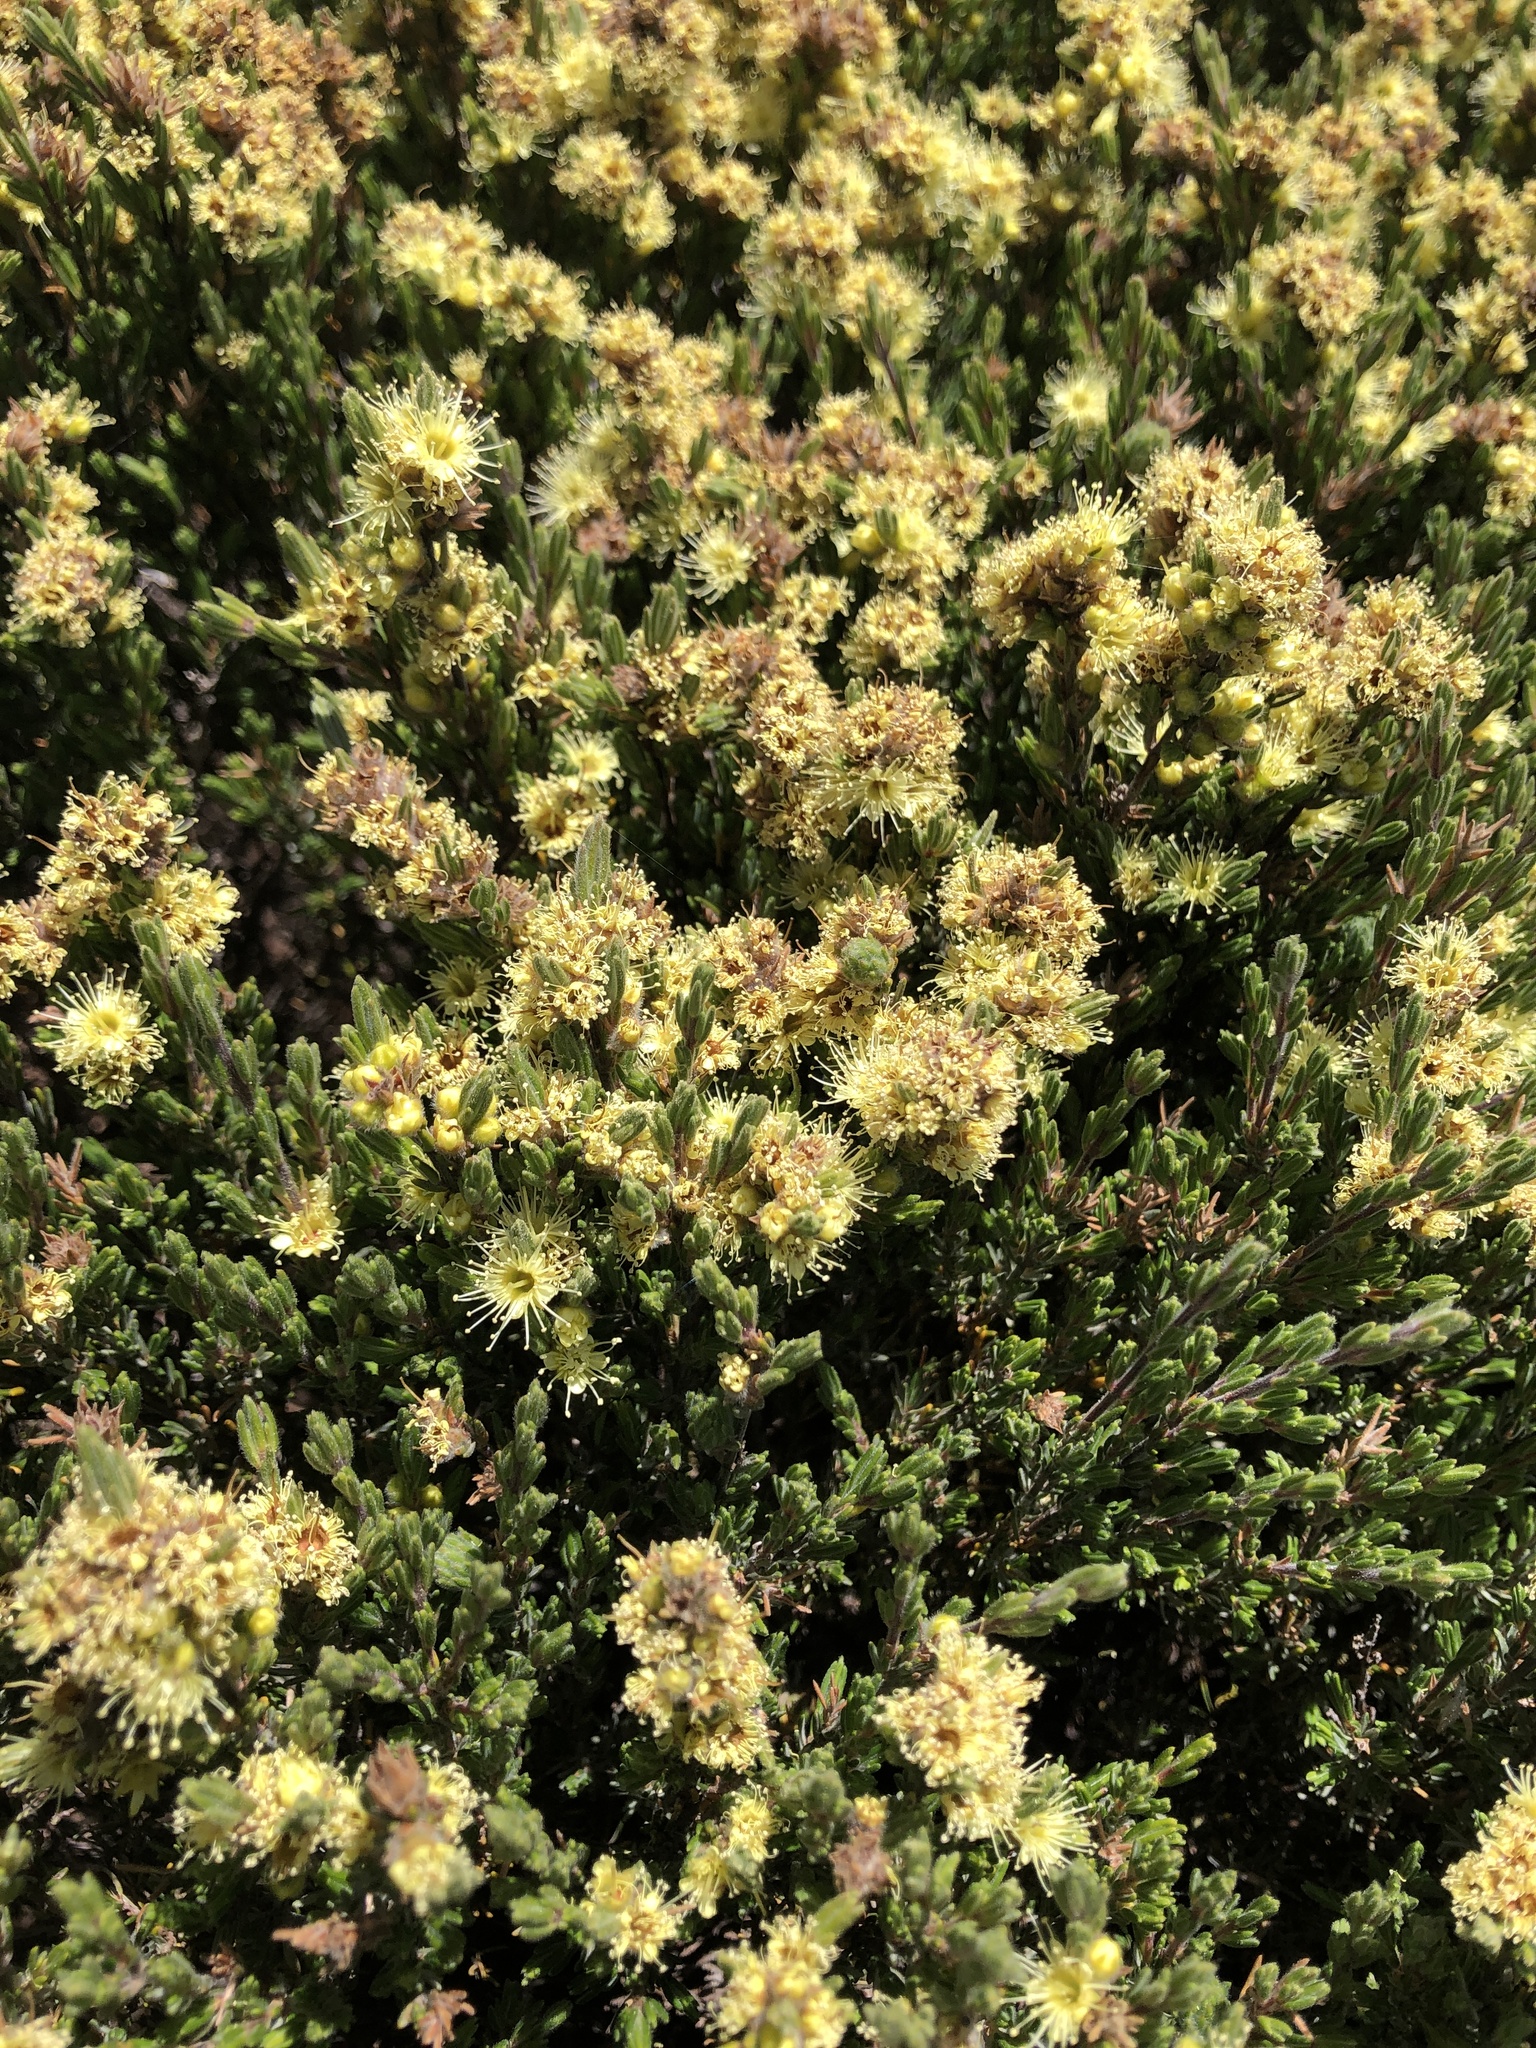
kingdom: Plantae
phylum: Tracheophyta
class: Magnoliopsida
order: Myrtales
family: Myrtaceae
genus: Kunzea
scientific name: Kunzea muelleri
